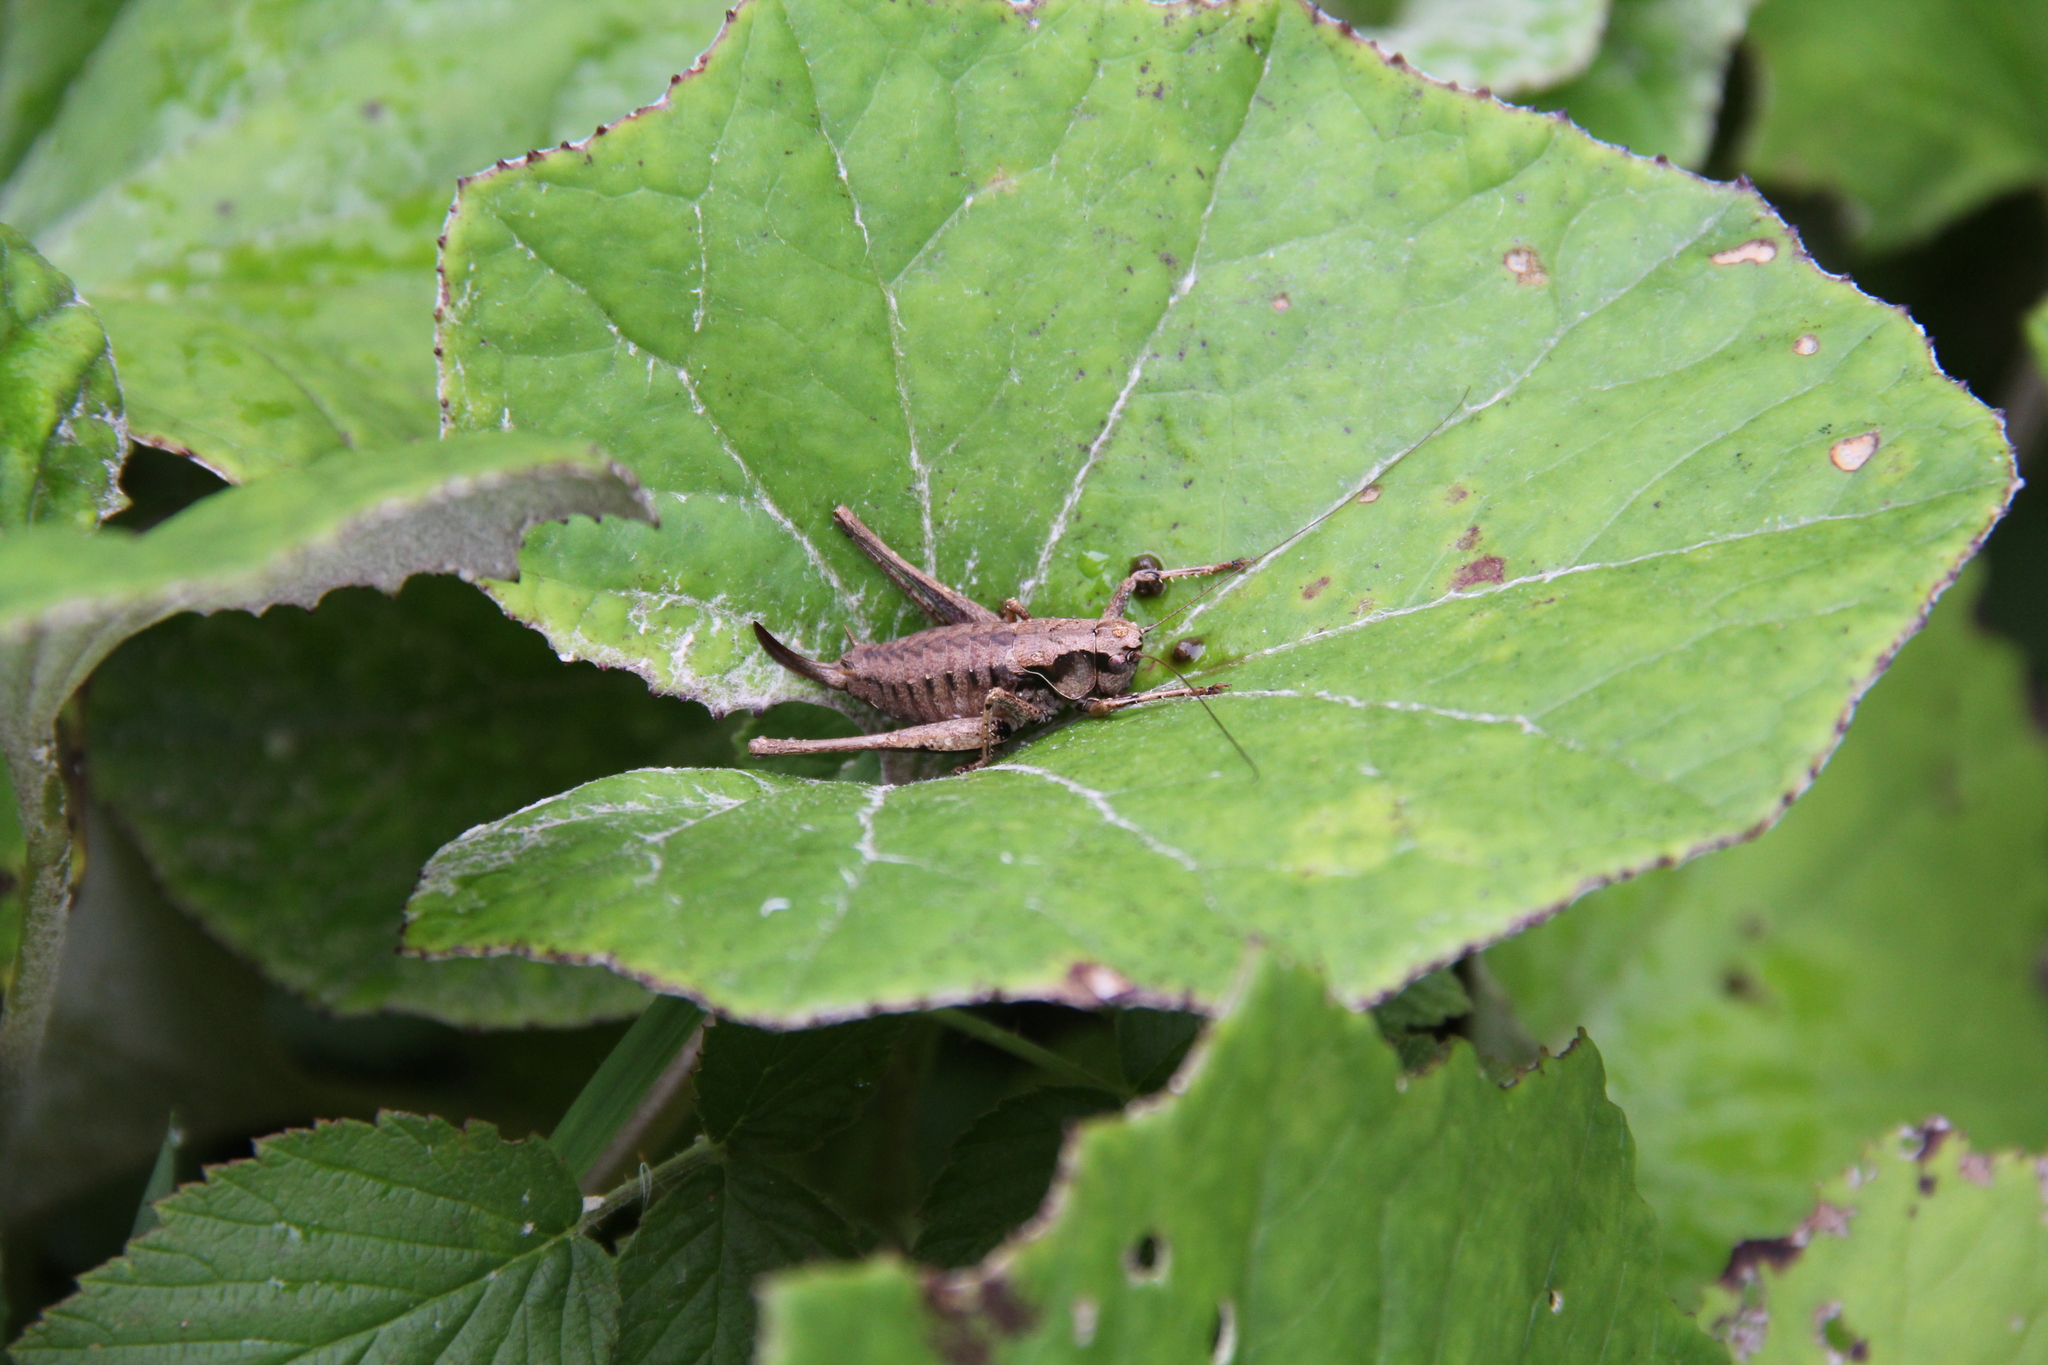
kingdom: Animalia
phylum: Arthropoda
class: Insecta
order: Orthoptera
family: Tettigoniidae
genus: Pholidoptera
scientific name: Pholidoptera griseoaptera
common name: Dark bush-cricket
